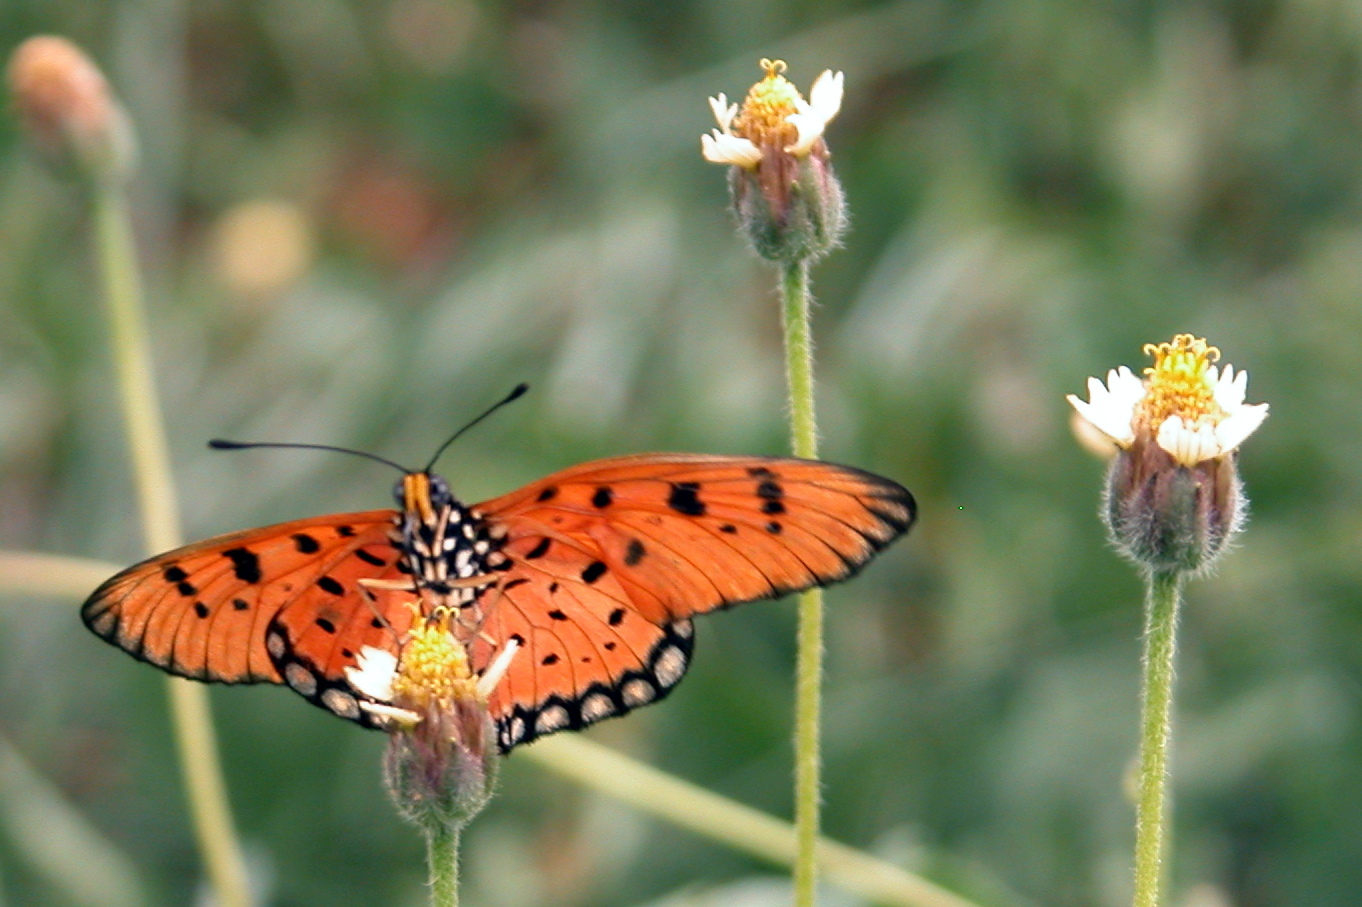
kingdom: Animalia
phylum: Arthropoda
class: Insecta
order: Lepidoptera
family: Nymphalidae
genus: Acraea
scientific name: Acraea terpsicore
